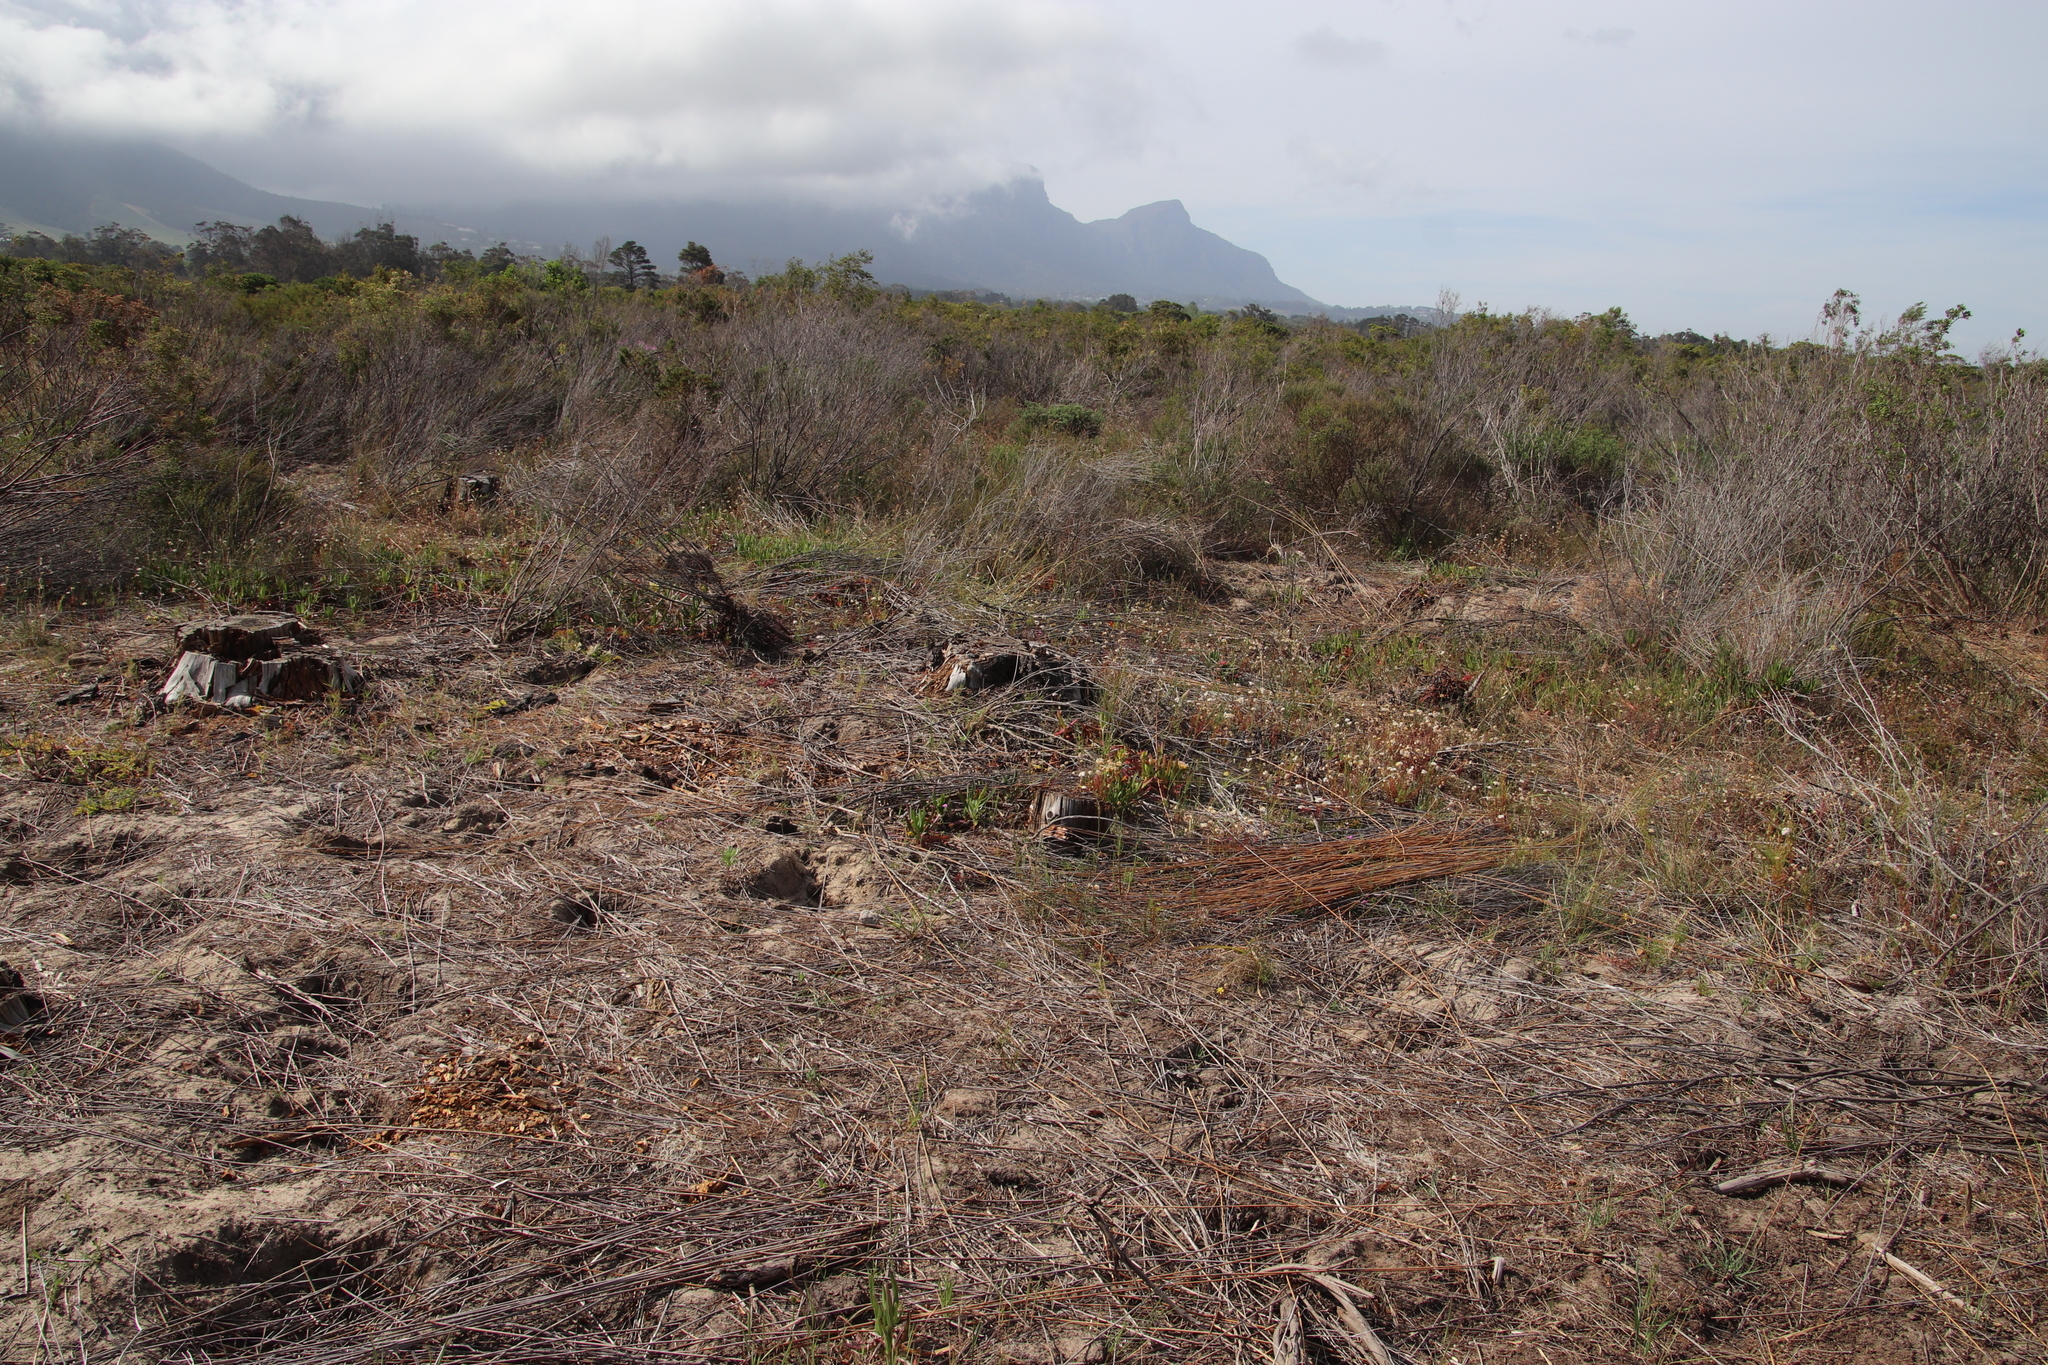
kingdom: Plantae
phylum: Tracheophyta
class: Liliopsida
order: Poales
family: Restionaceae
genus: Thamnochortus
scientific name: Thamnochortus insignis
